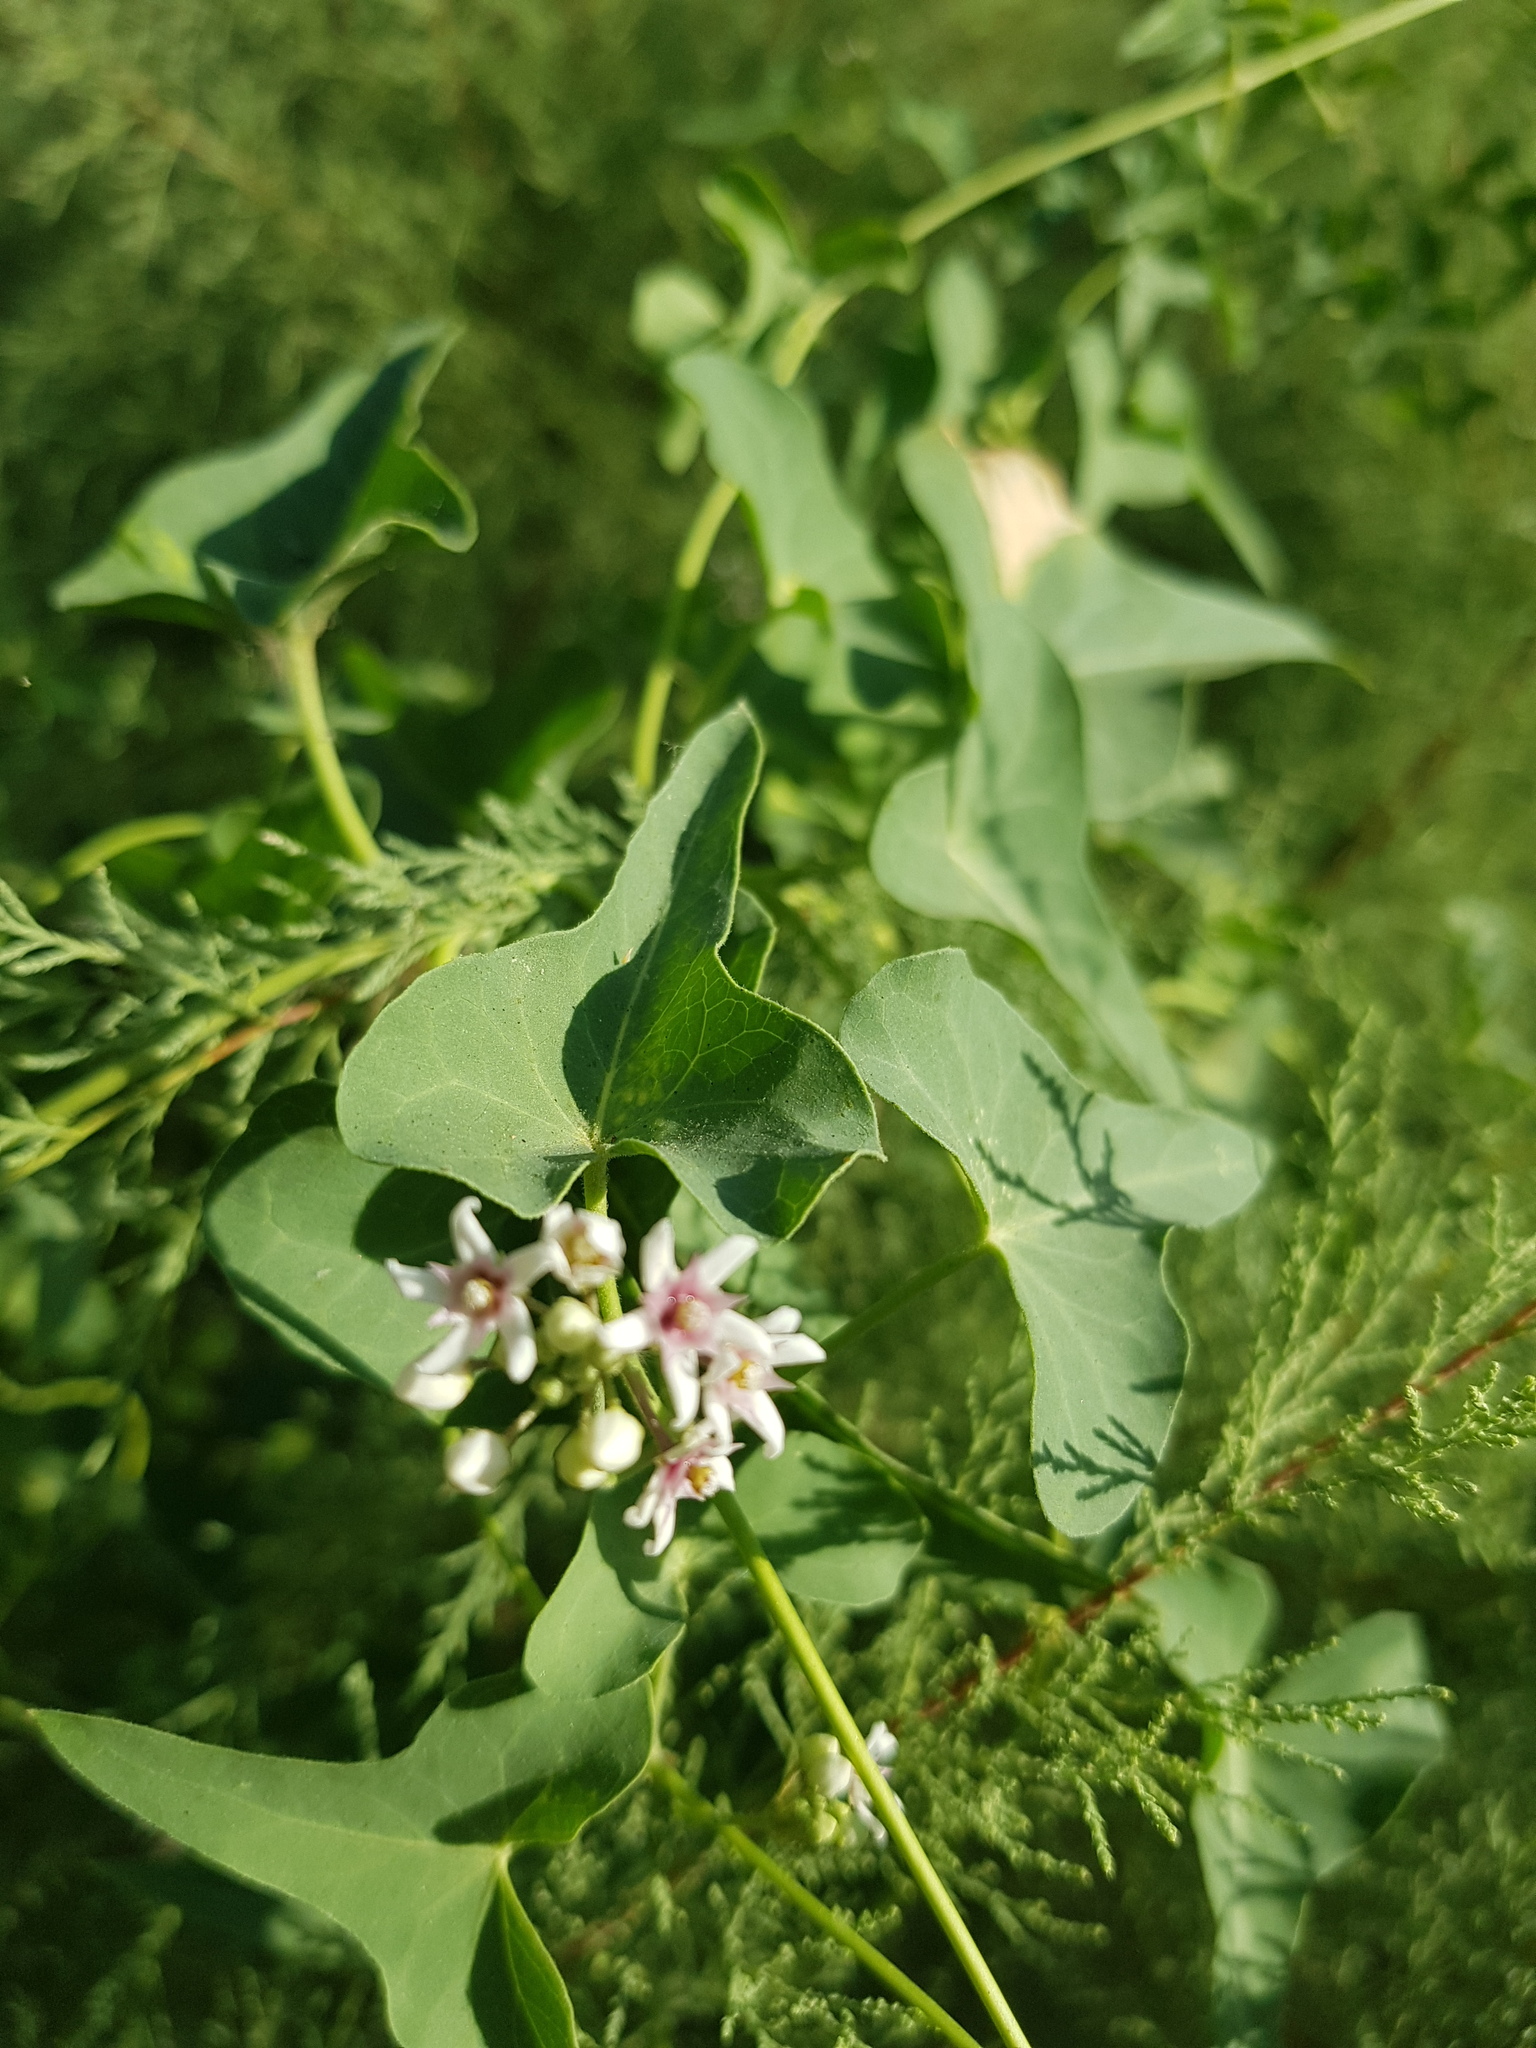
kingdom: Plantae
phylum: Tracheophyta
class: Magnoliopsida
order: Gentianales
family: Apocynaceae
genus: Cynanchum
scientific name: Cynanchum acutum
